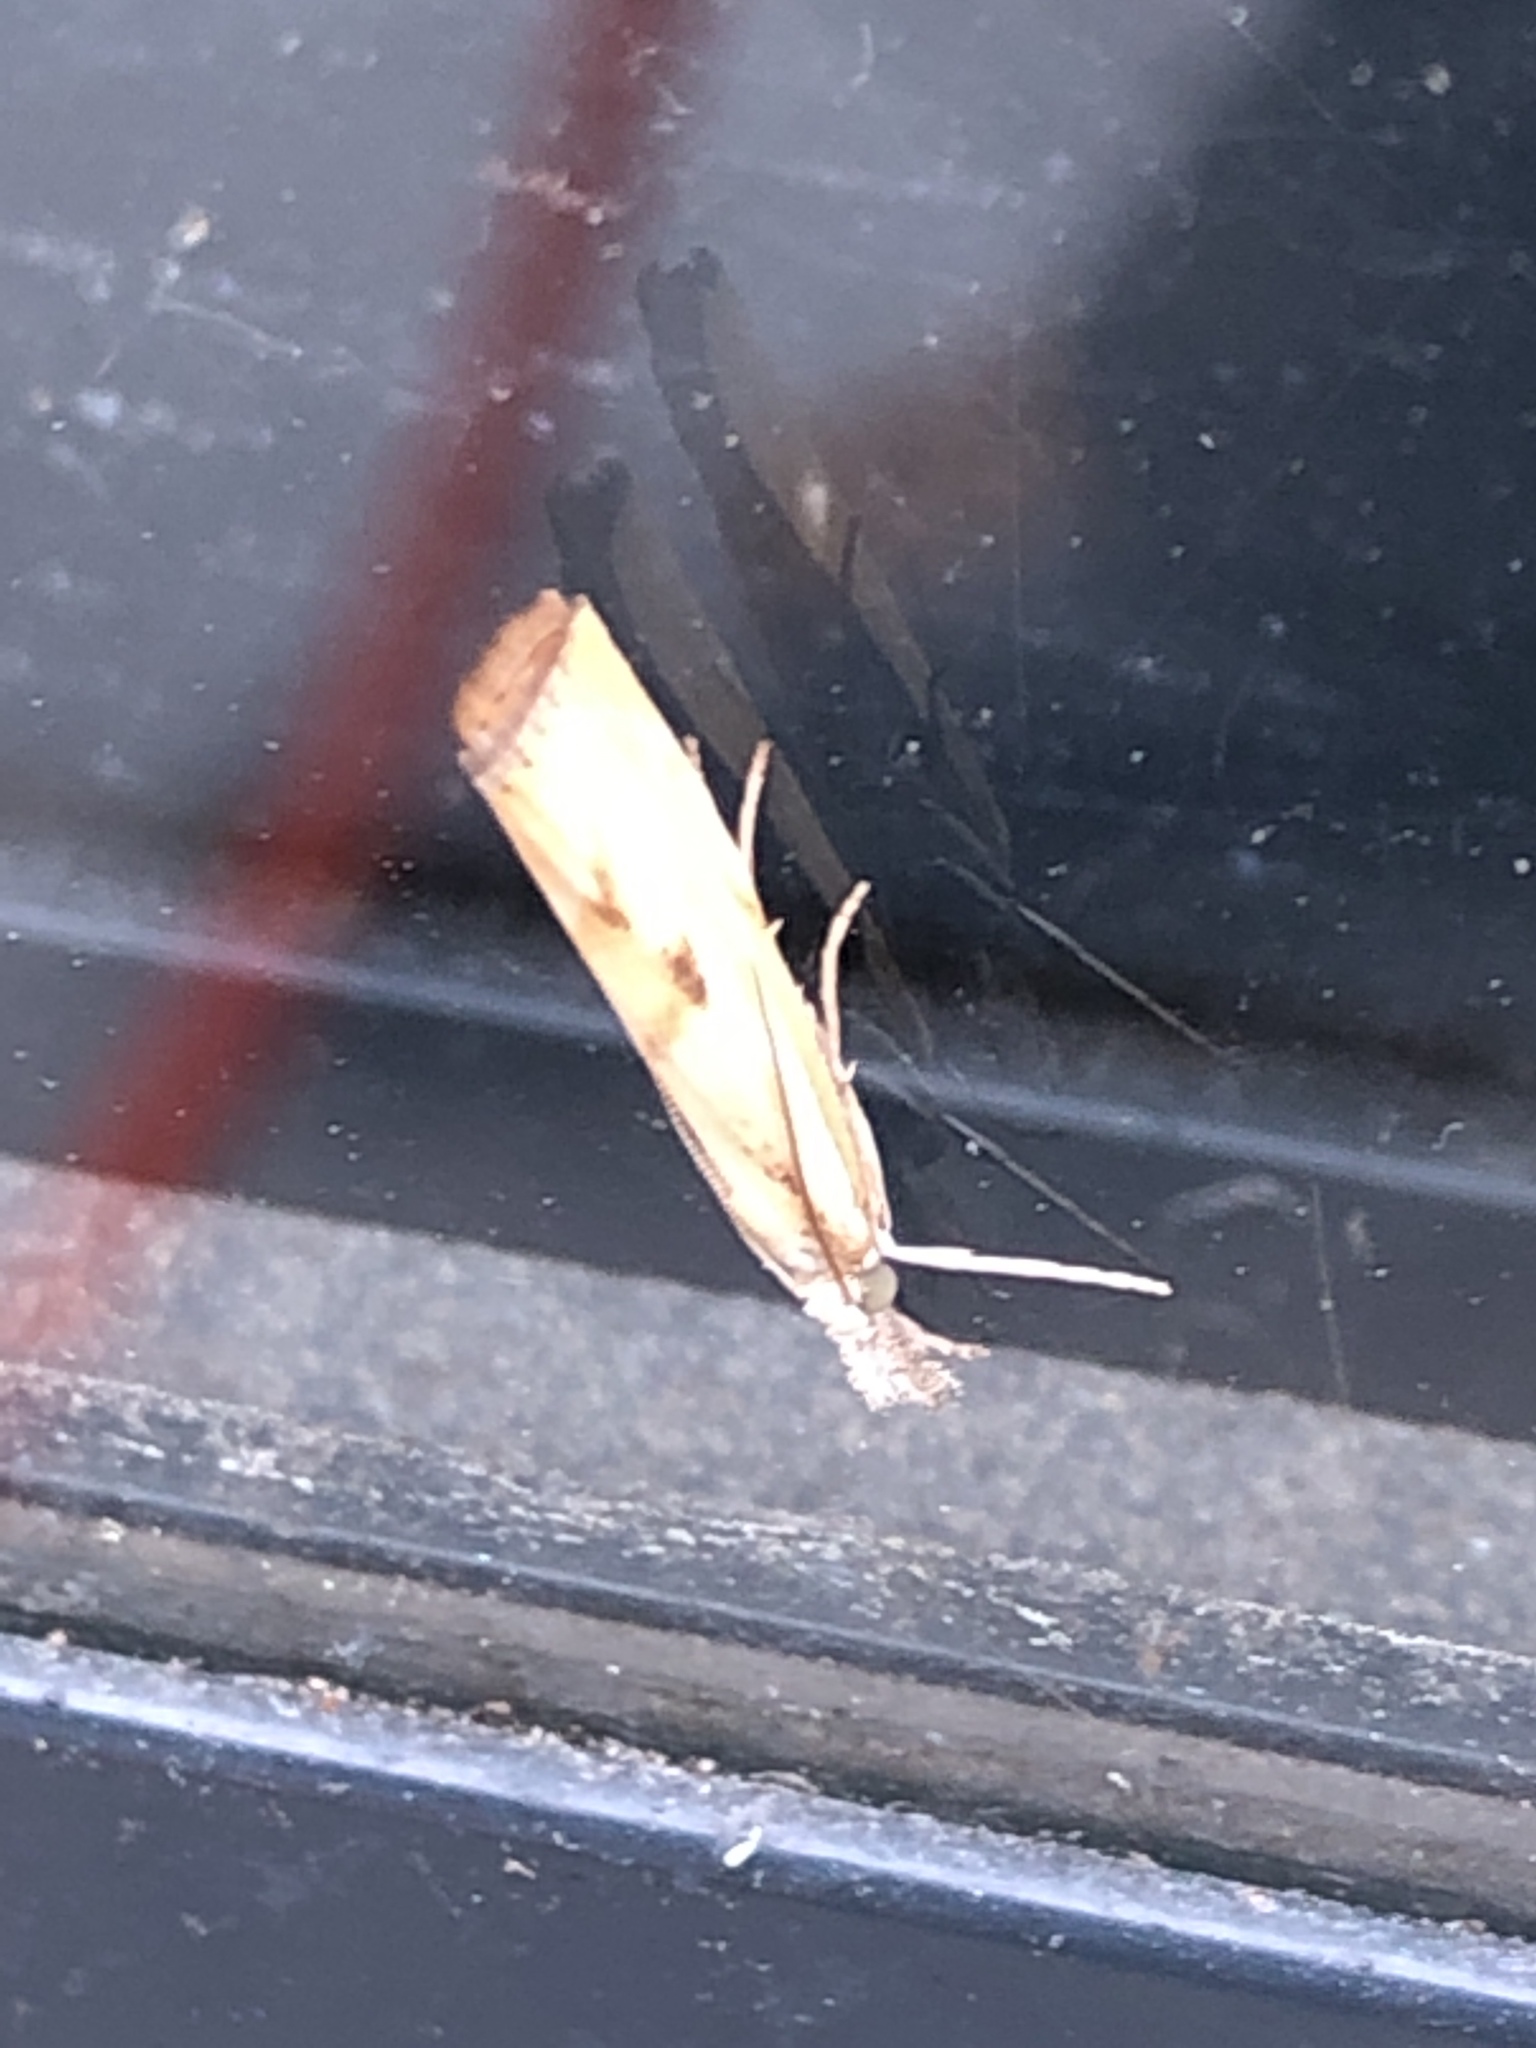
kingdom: Animalia
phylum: Arthropoda
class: Insecta
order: Lepidoptera
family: Crambidae
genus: Agriphila
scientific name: Agriphila geniculea
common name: Elbow-stripe grass-veneer
